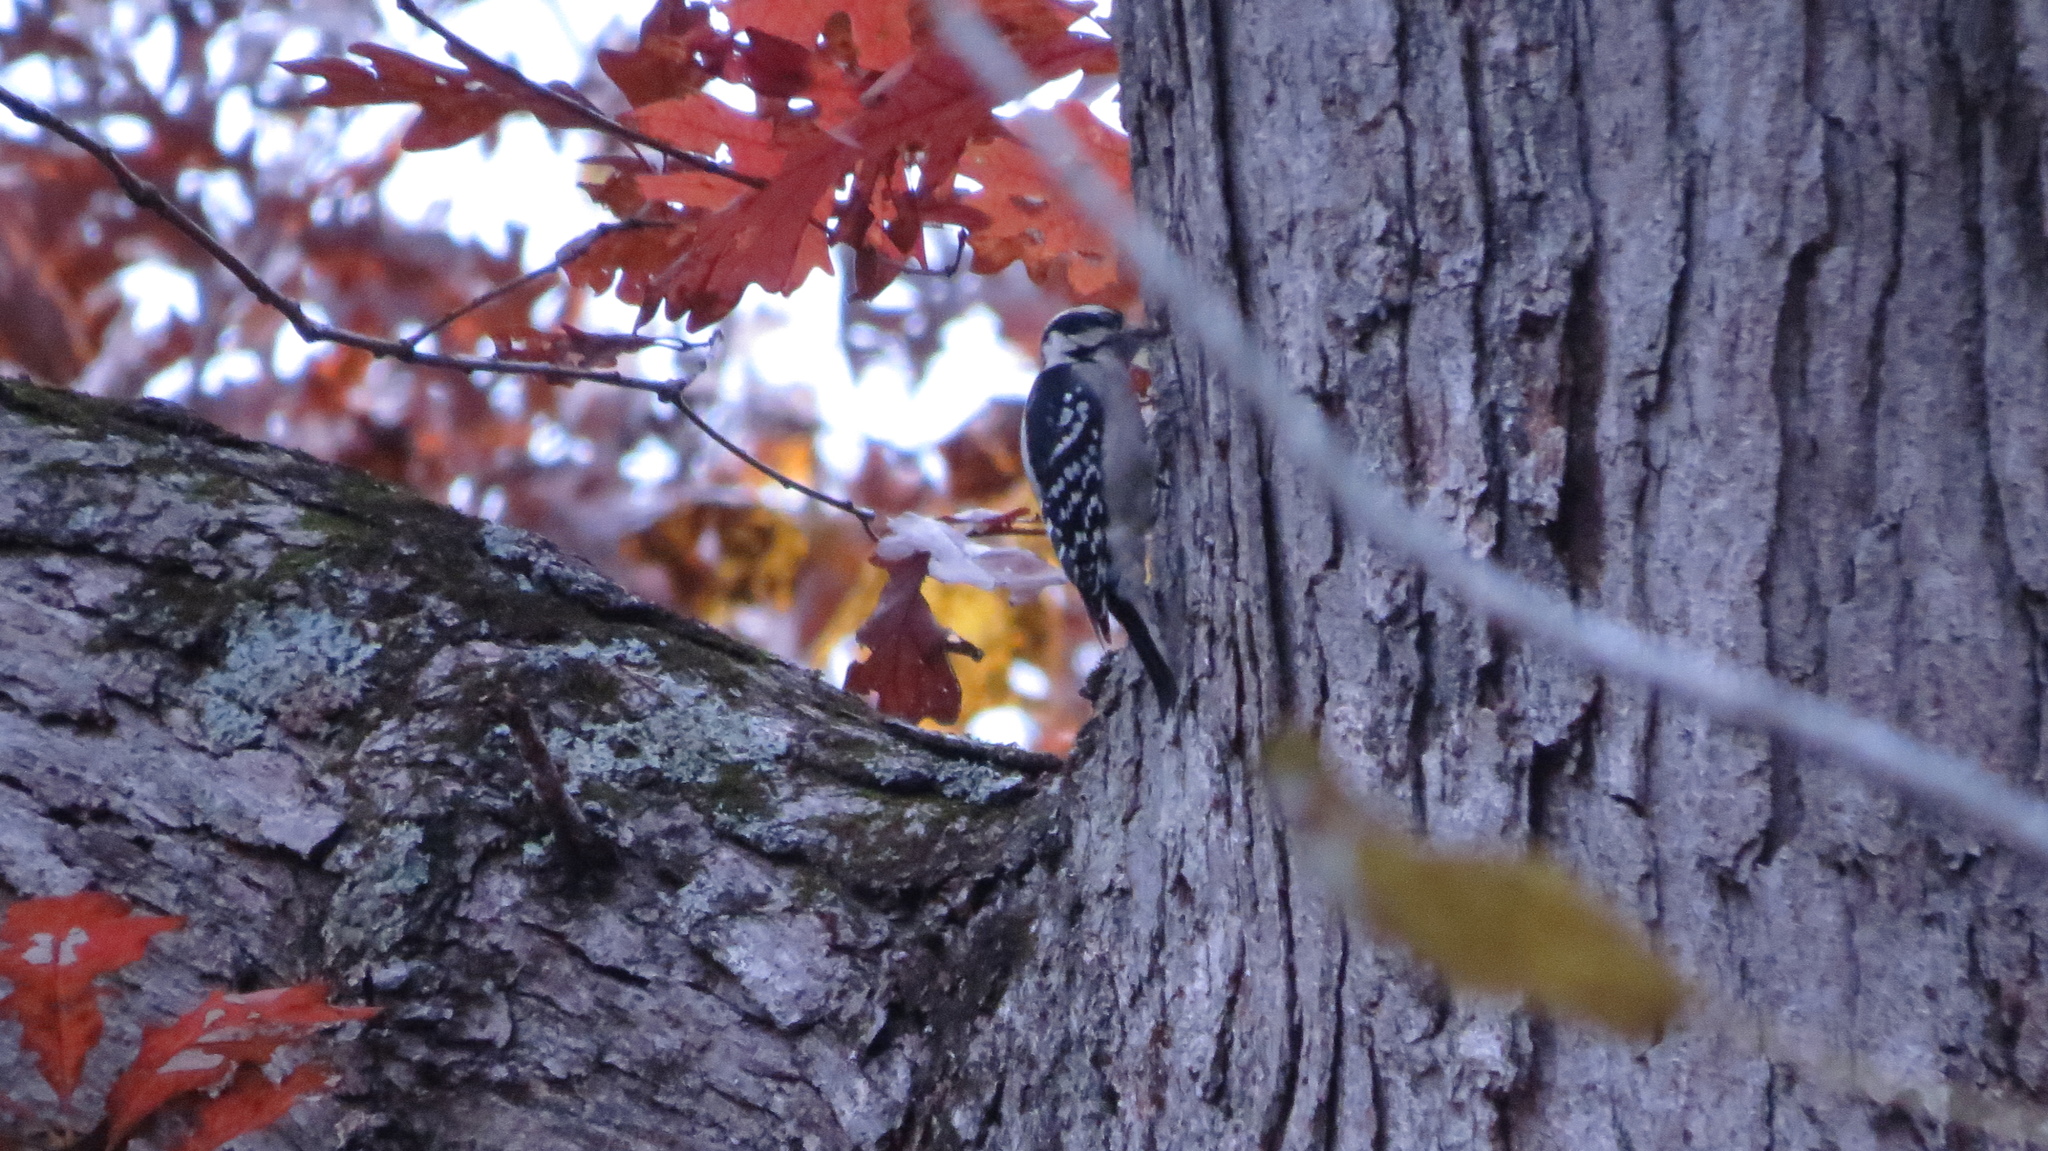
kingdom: Animalia
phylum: Chordata
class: Aves
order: Piciformes
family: Picidae
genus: Leuconotopicus
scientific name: Leuconotopicus villosus
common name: Hairy woodpecker
